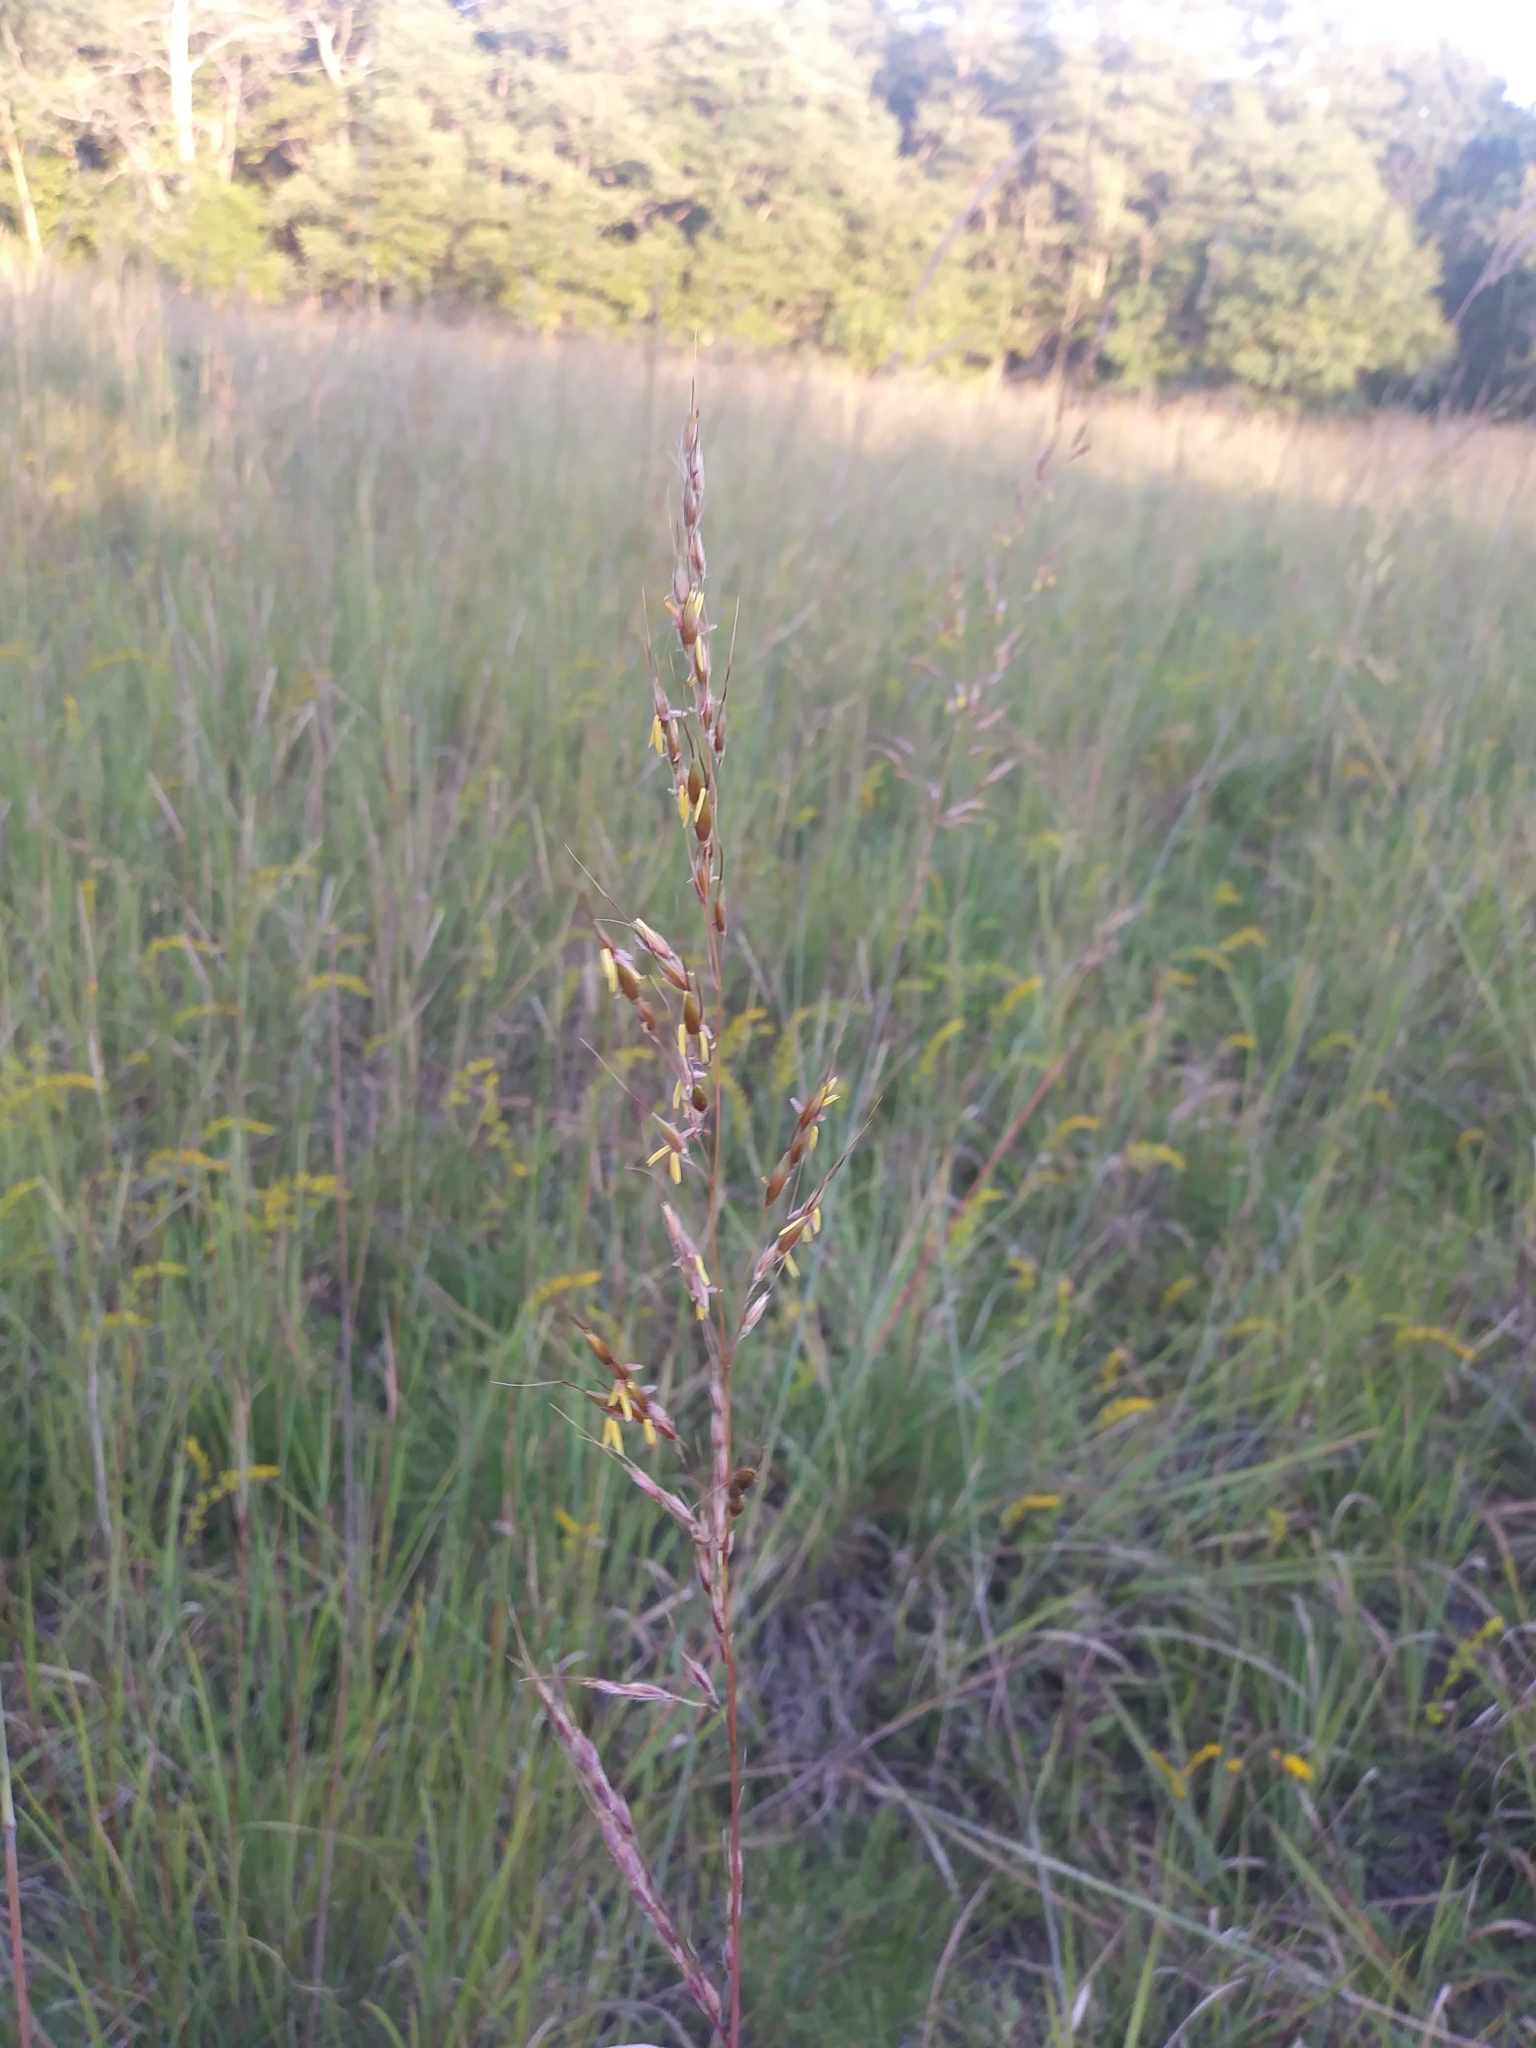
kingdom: Plantae
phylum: Tracheophyta
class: Liliopsida
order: Poales
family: Poaceae
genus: Sorghastrum
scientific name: Sorghastrum nutans
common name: Indian grass
